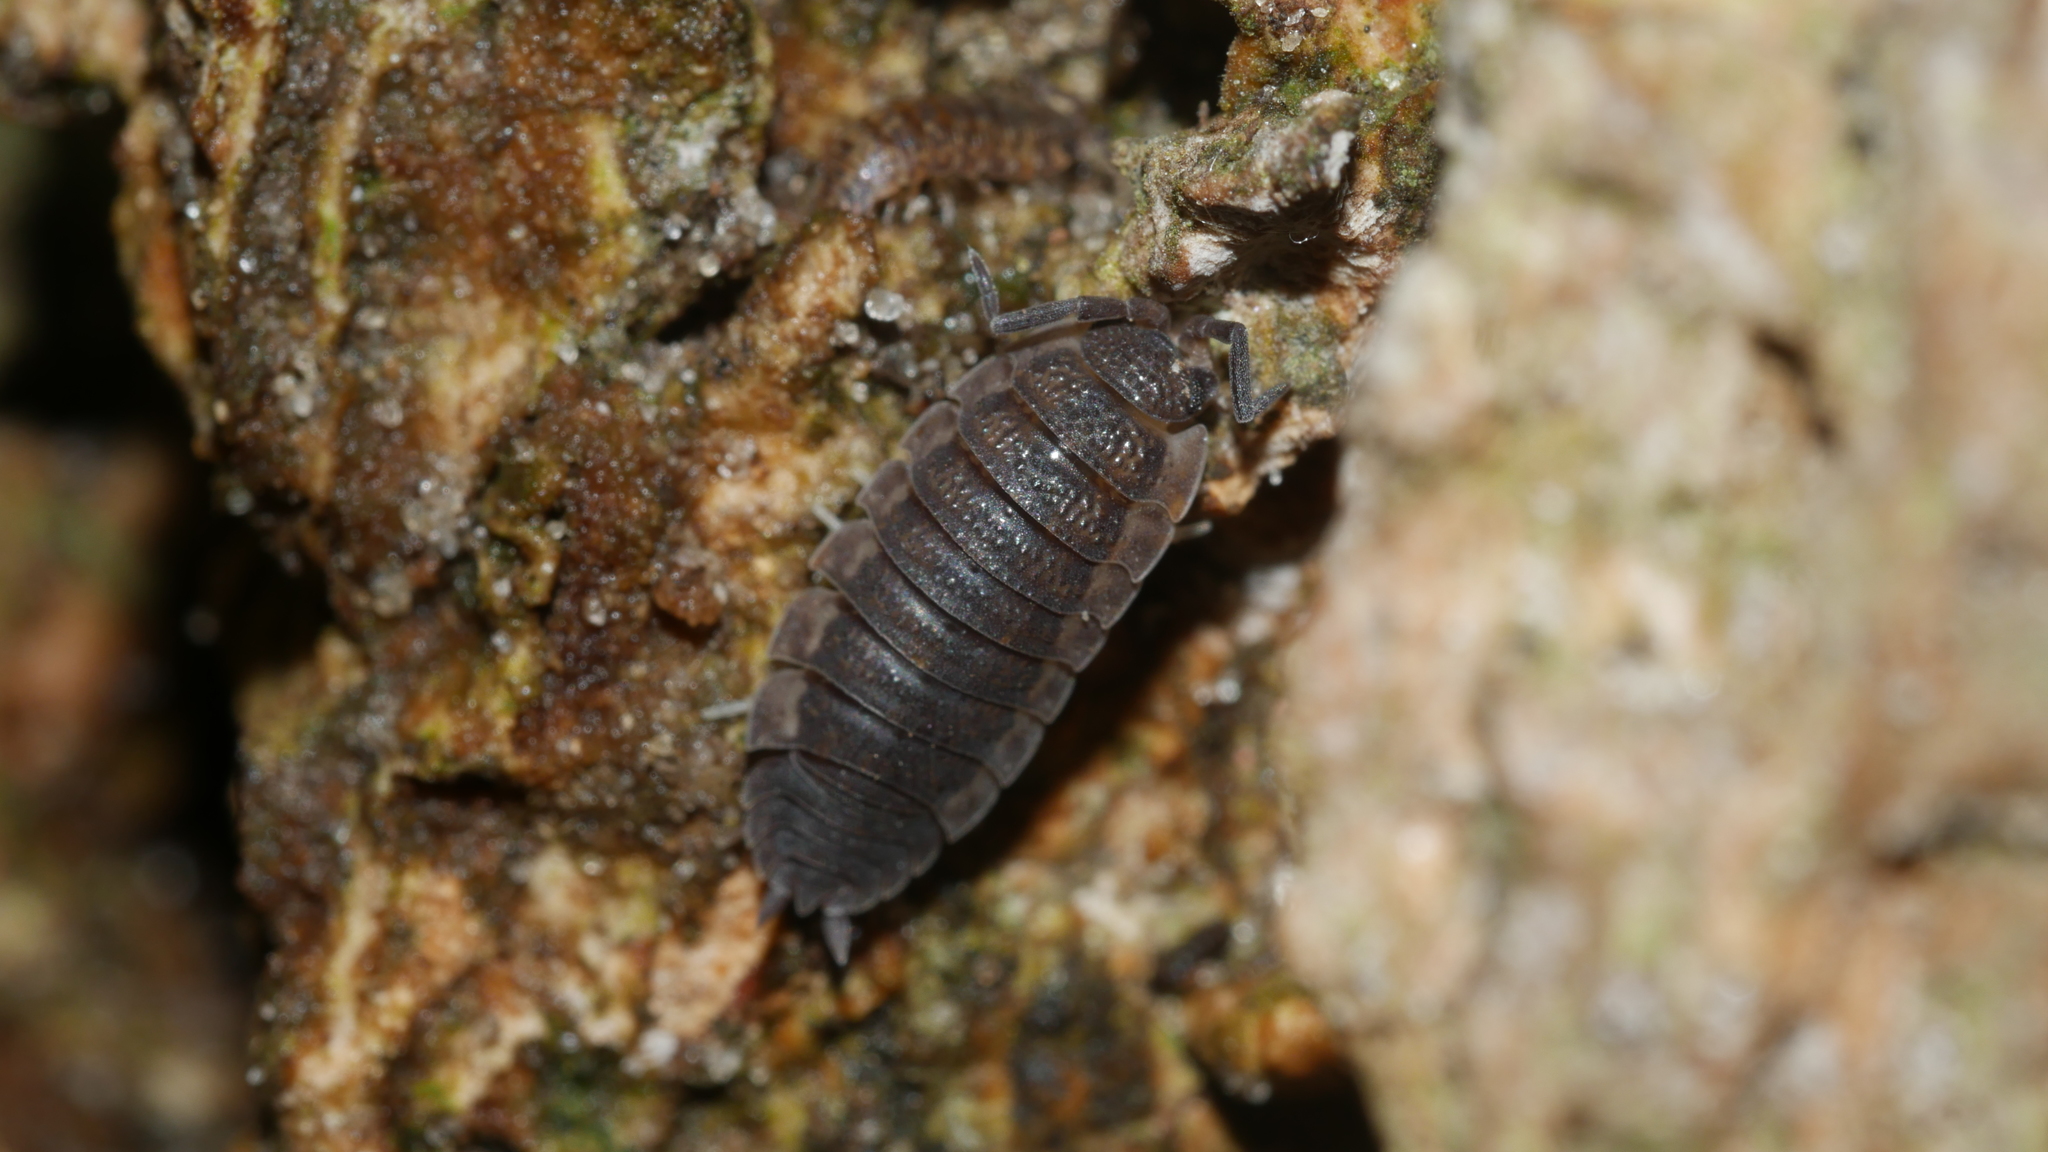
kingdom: Animalia
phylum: Arthropoda
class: Malacostraca
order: Isopoda
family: Porcellionidae
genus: Porcellio
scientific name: Porcellio scaber
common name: Common rough woodlouse
